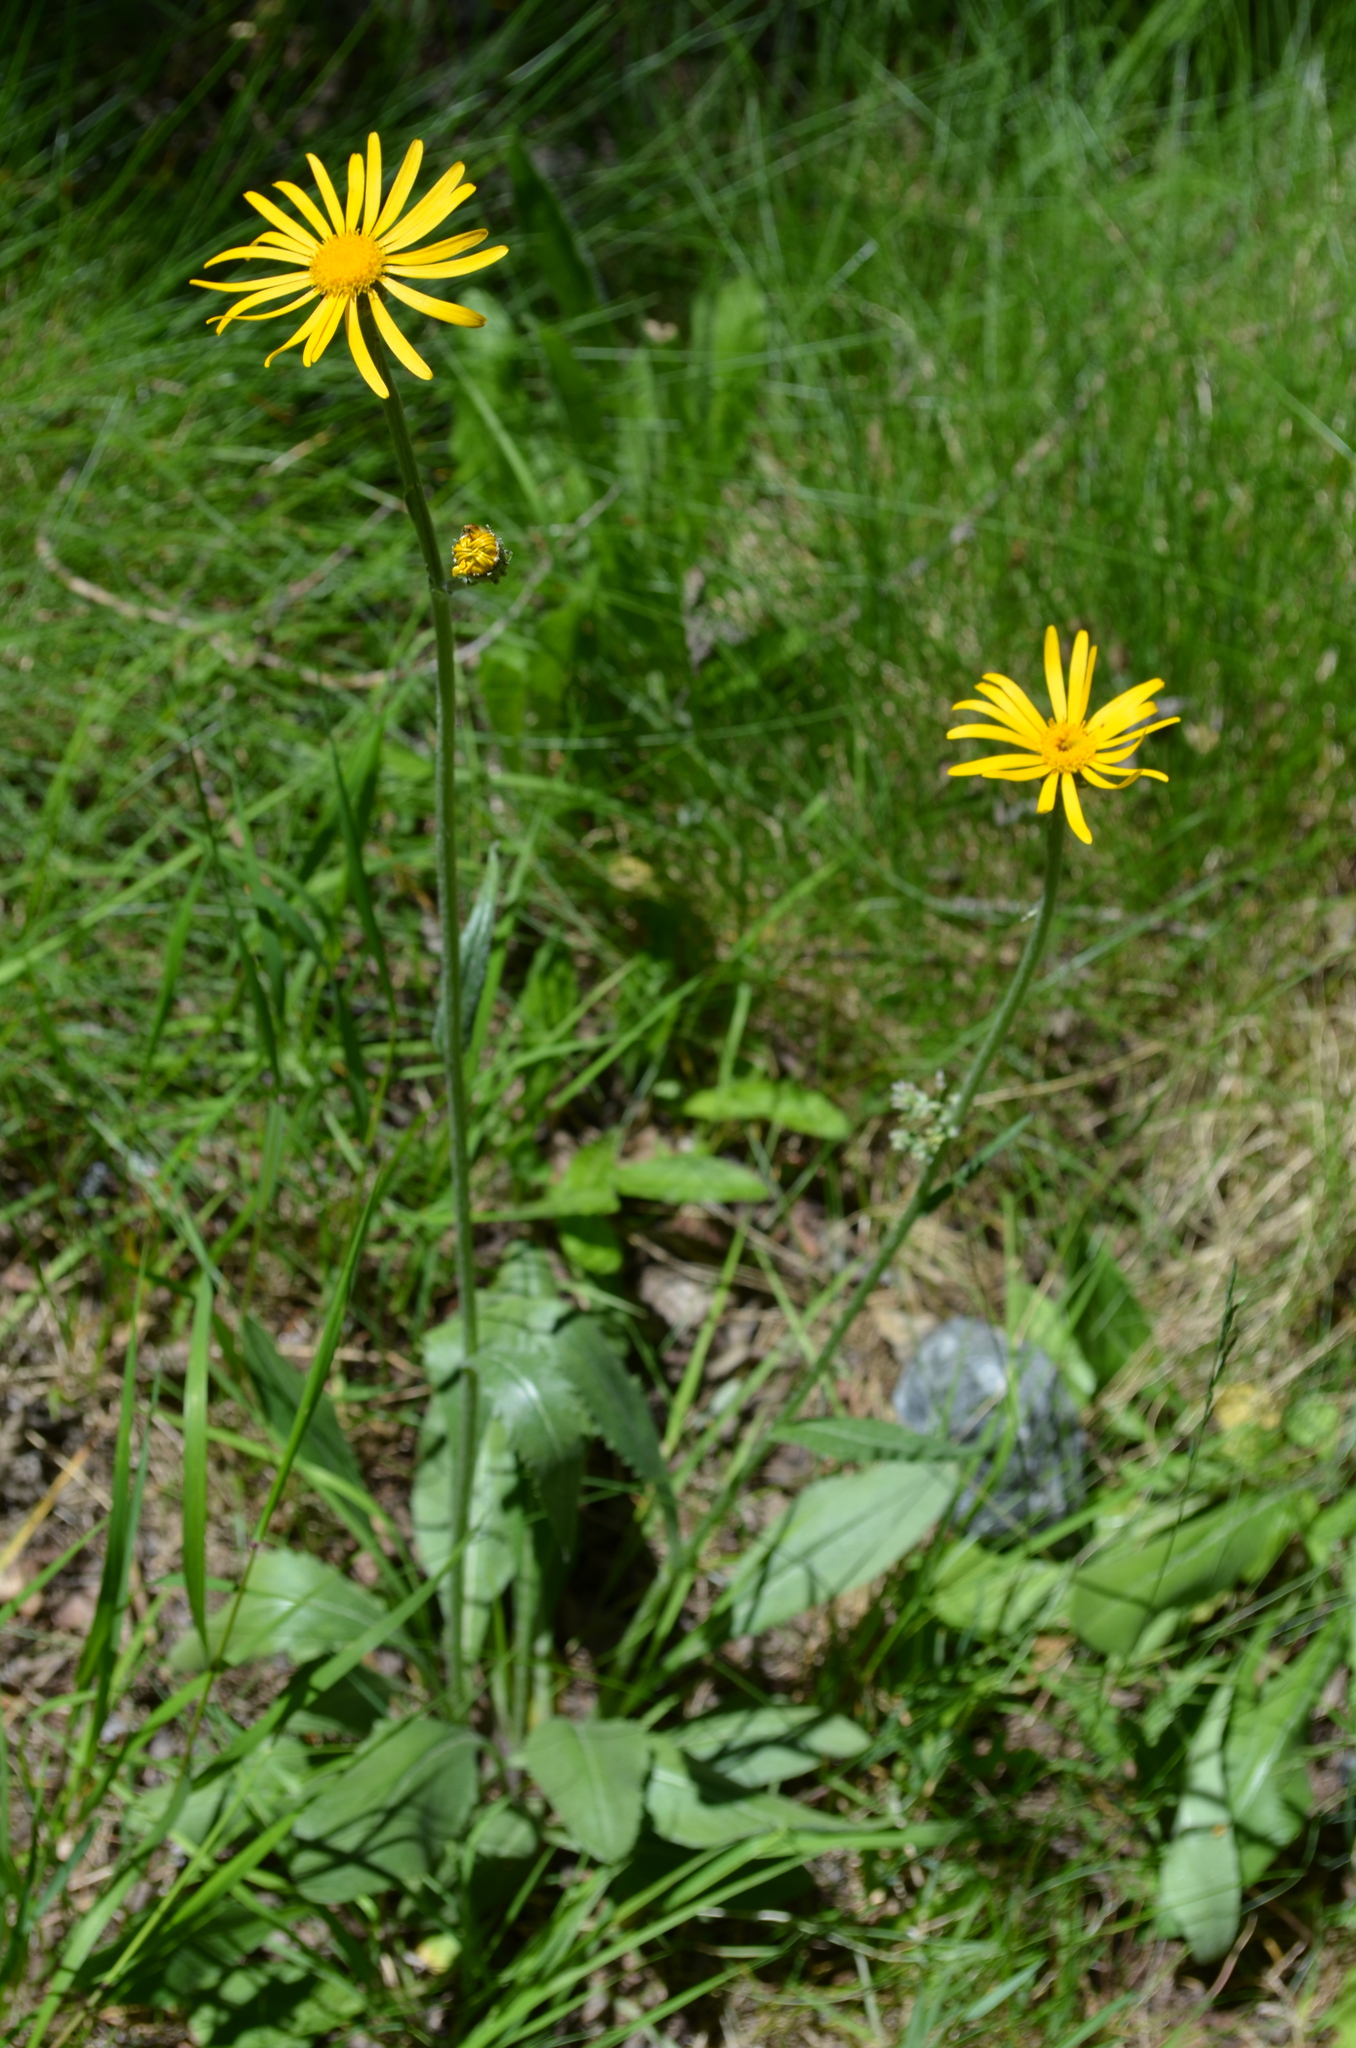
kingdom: Plantae
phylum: Tracheophyta
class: Magnoliopsida
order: Asterales
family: Asteraceae
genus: Senecio
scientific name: Senecio doronicum
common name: Chamois ragwort
